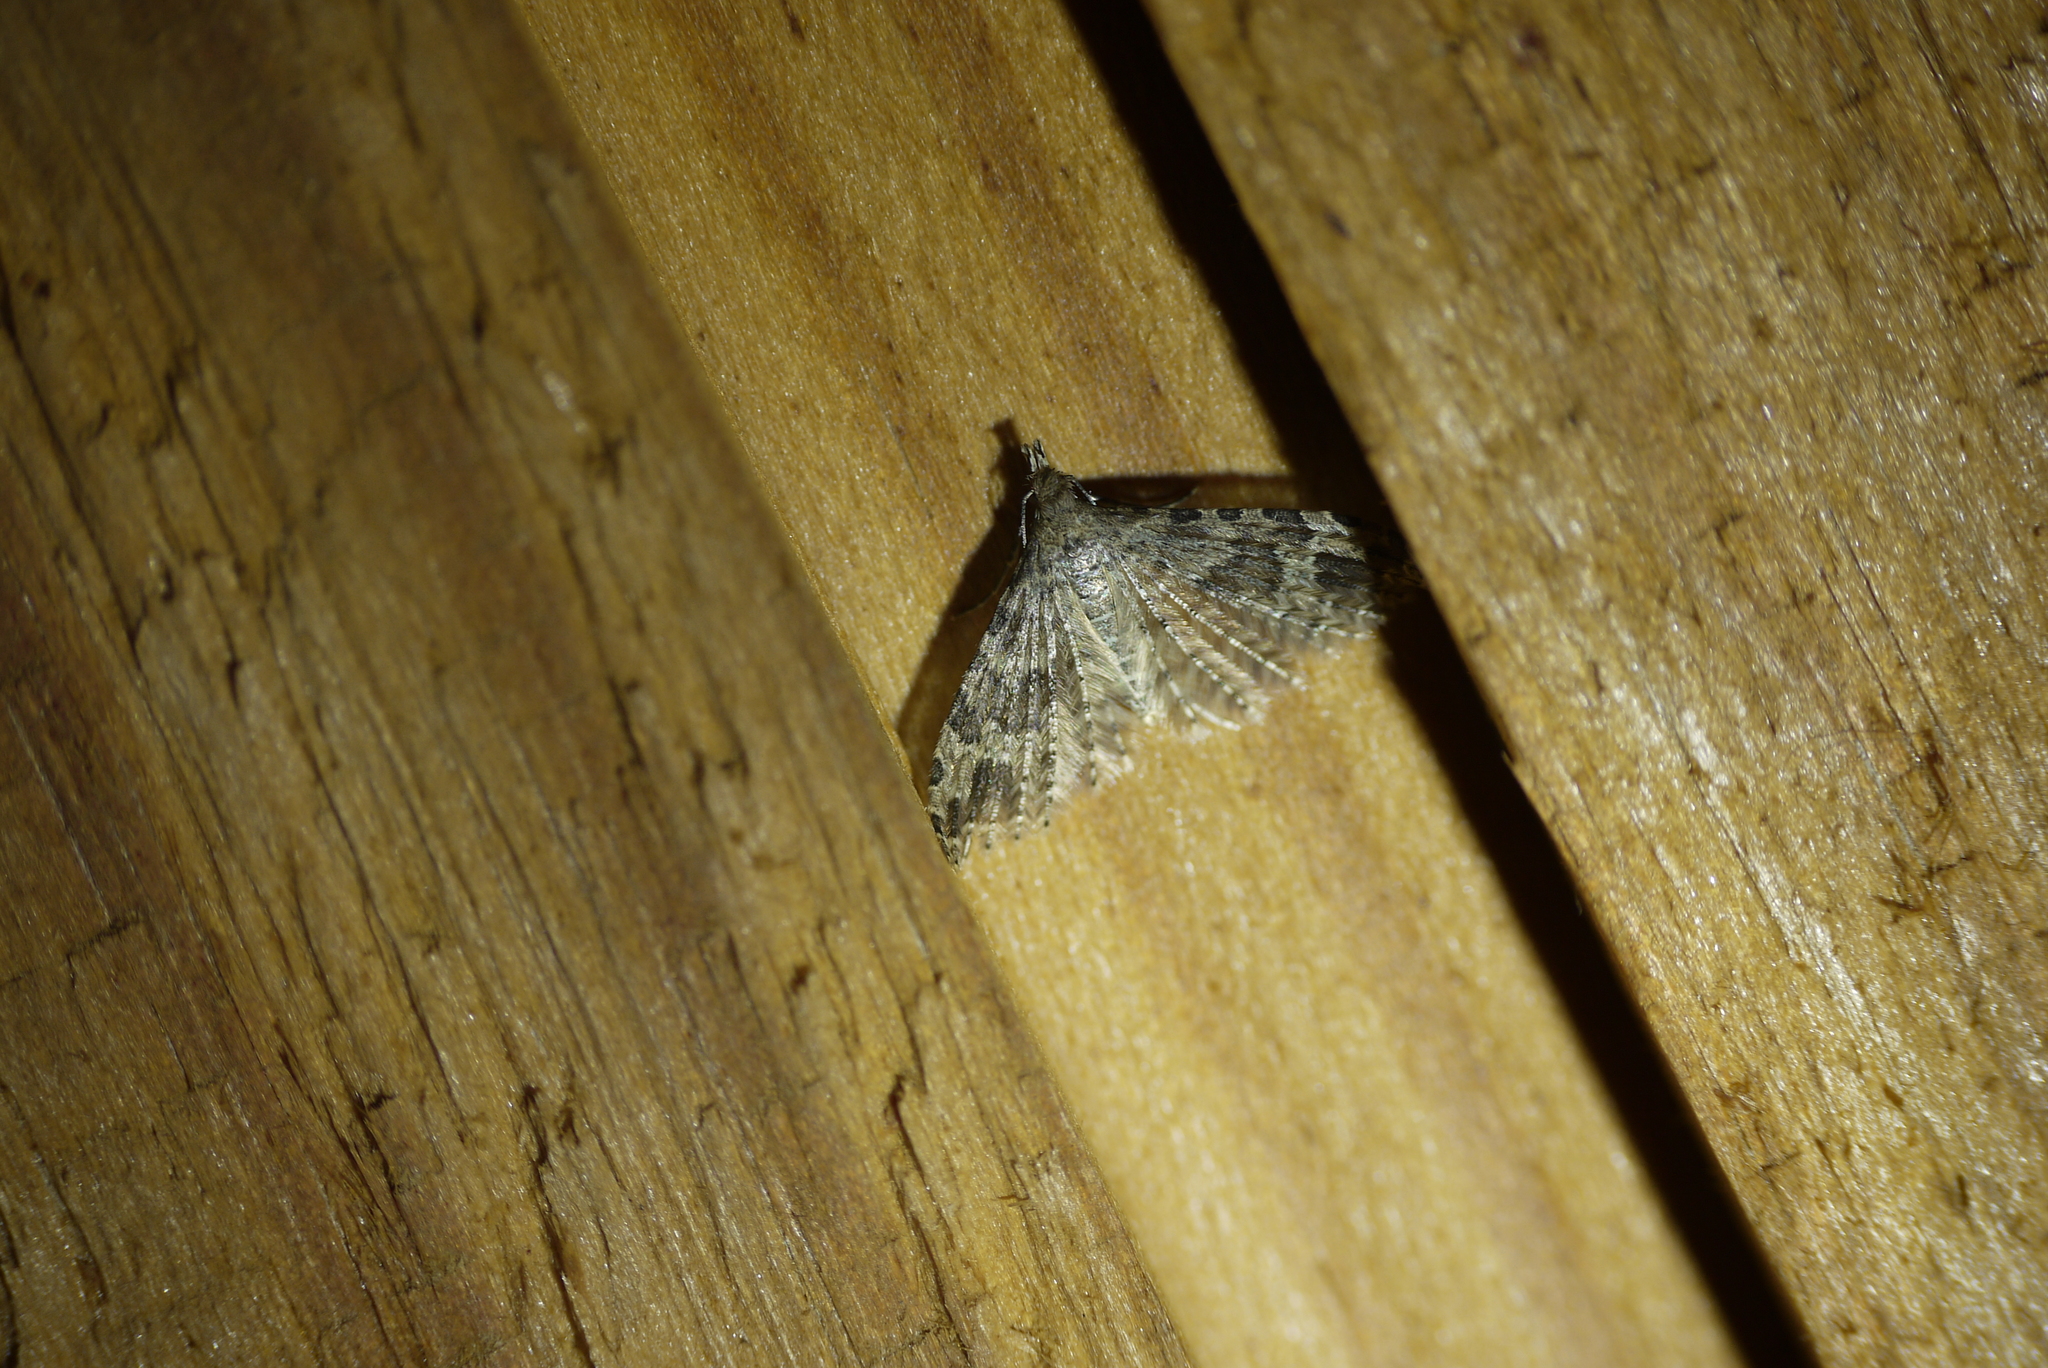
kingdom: Animalia
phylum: Arthropoda
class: Insecta
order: Lepidoptera
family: Alucitidae
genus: Alucita
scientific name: Alucita hexadactyla
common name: Twenty-plume moth
